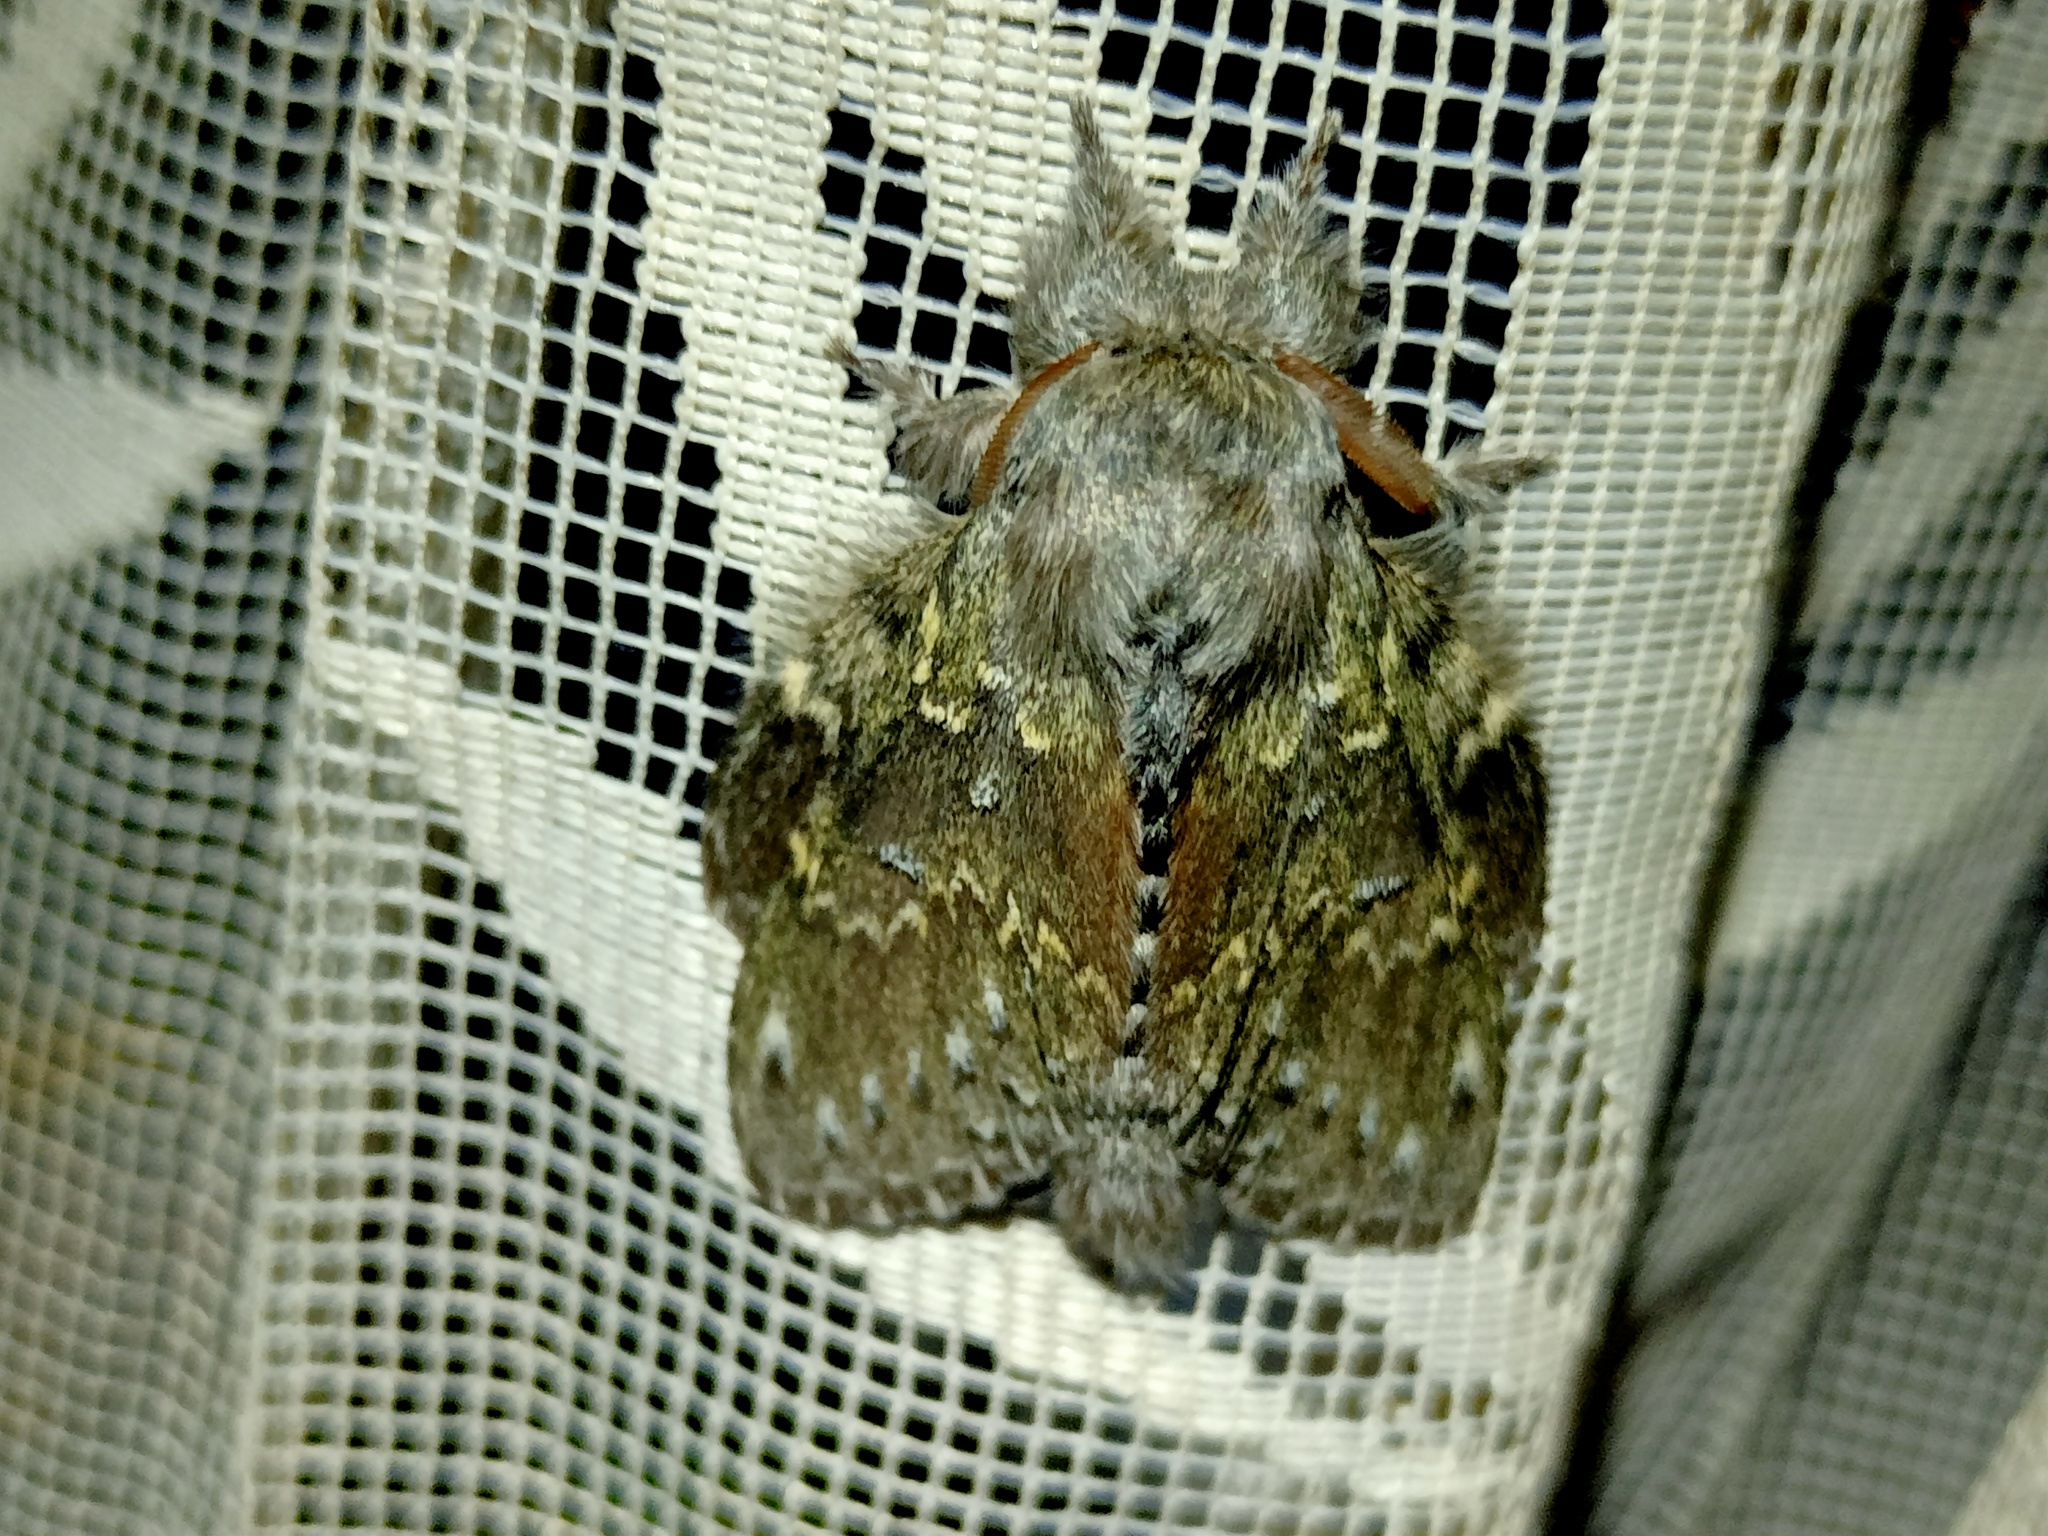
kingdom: Animalia
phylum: Arthropoda
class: Insecta
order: Lepidoptera
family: Notodontidae
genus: Stauropus
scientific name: Stauropus fagi
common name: Lobster moth
